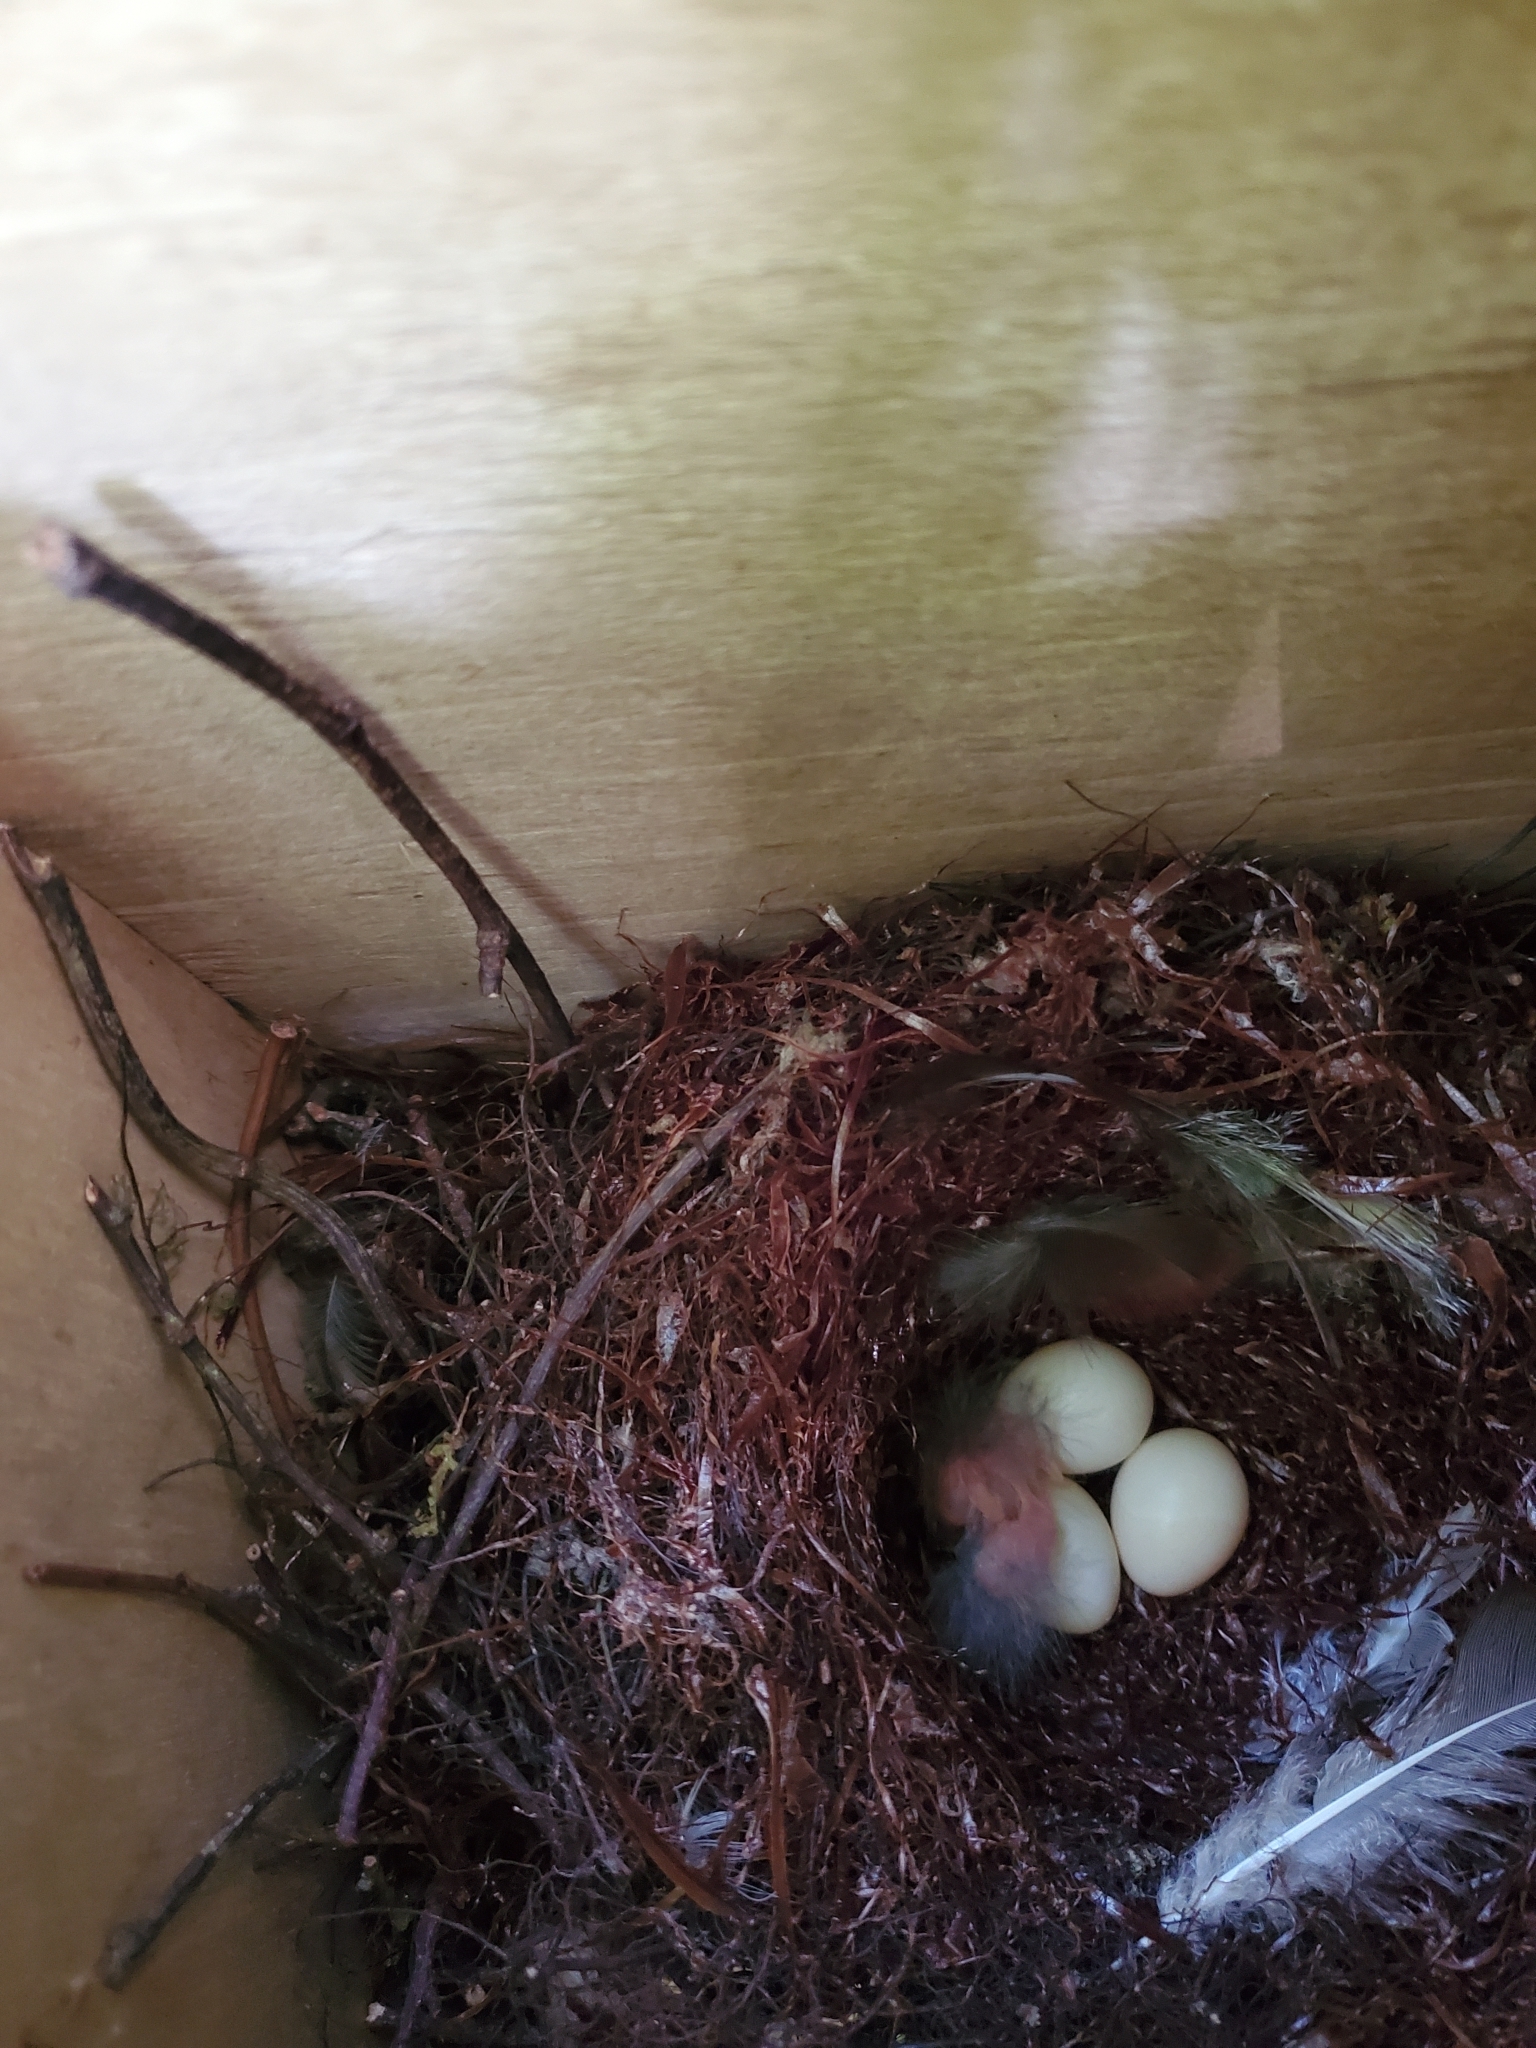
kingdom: Animalia
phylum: Chordata
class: Aves
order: Passeriformes
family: Notiomystidae
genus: Notiomystis
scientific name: Notiomystis cincta
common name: Stitchbird
